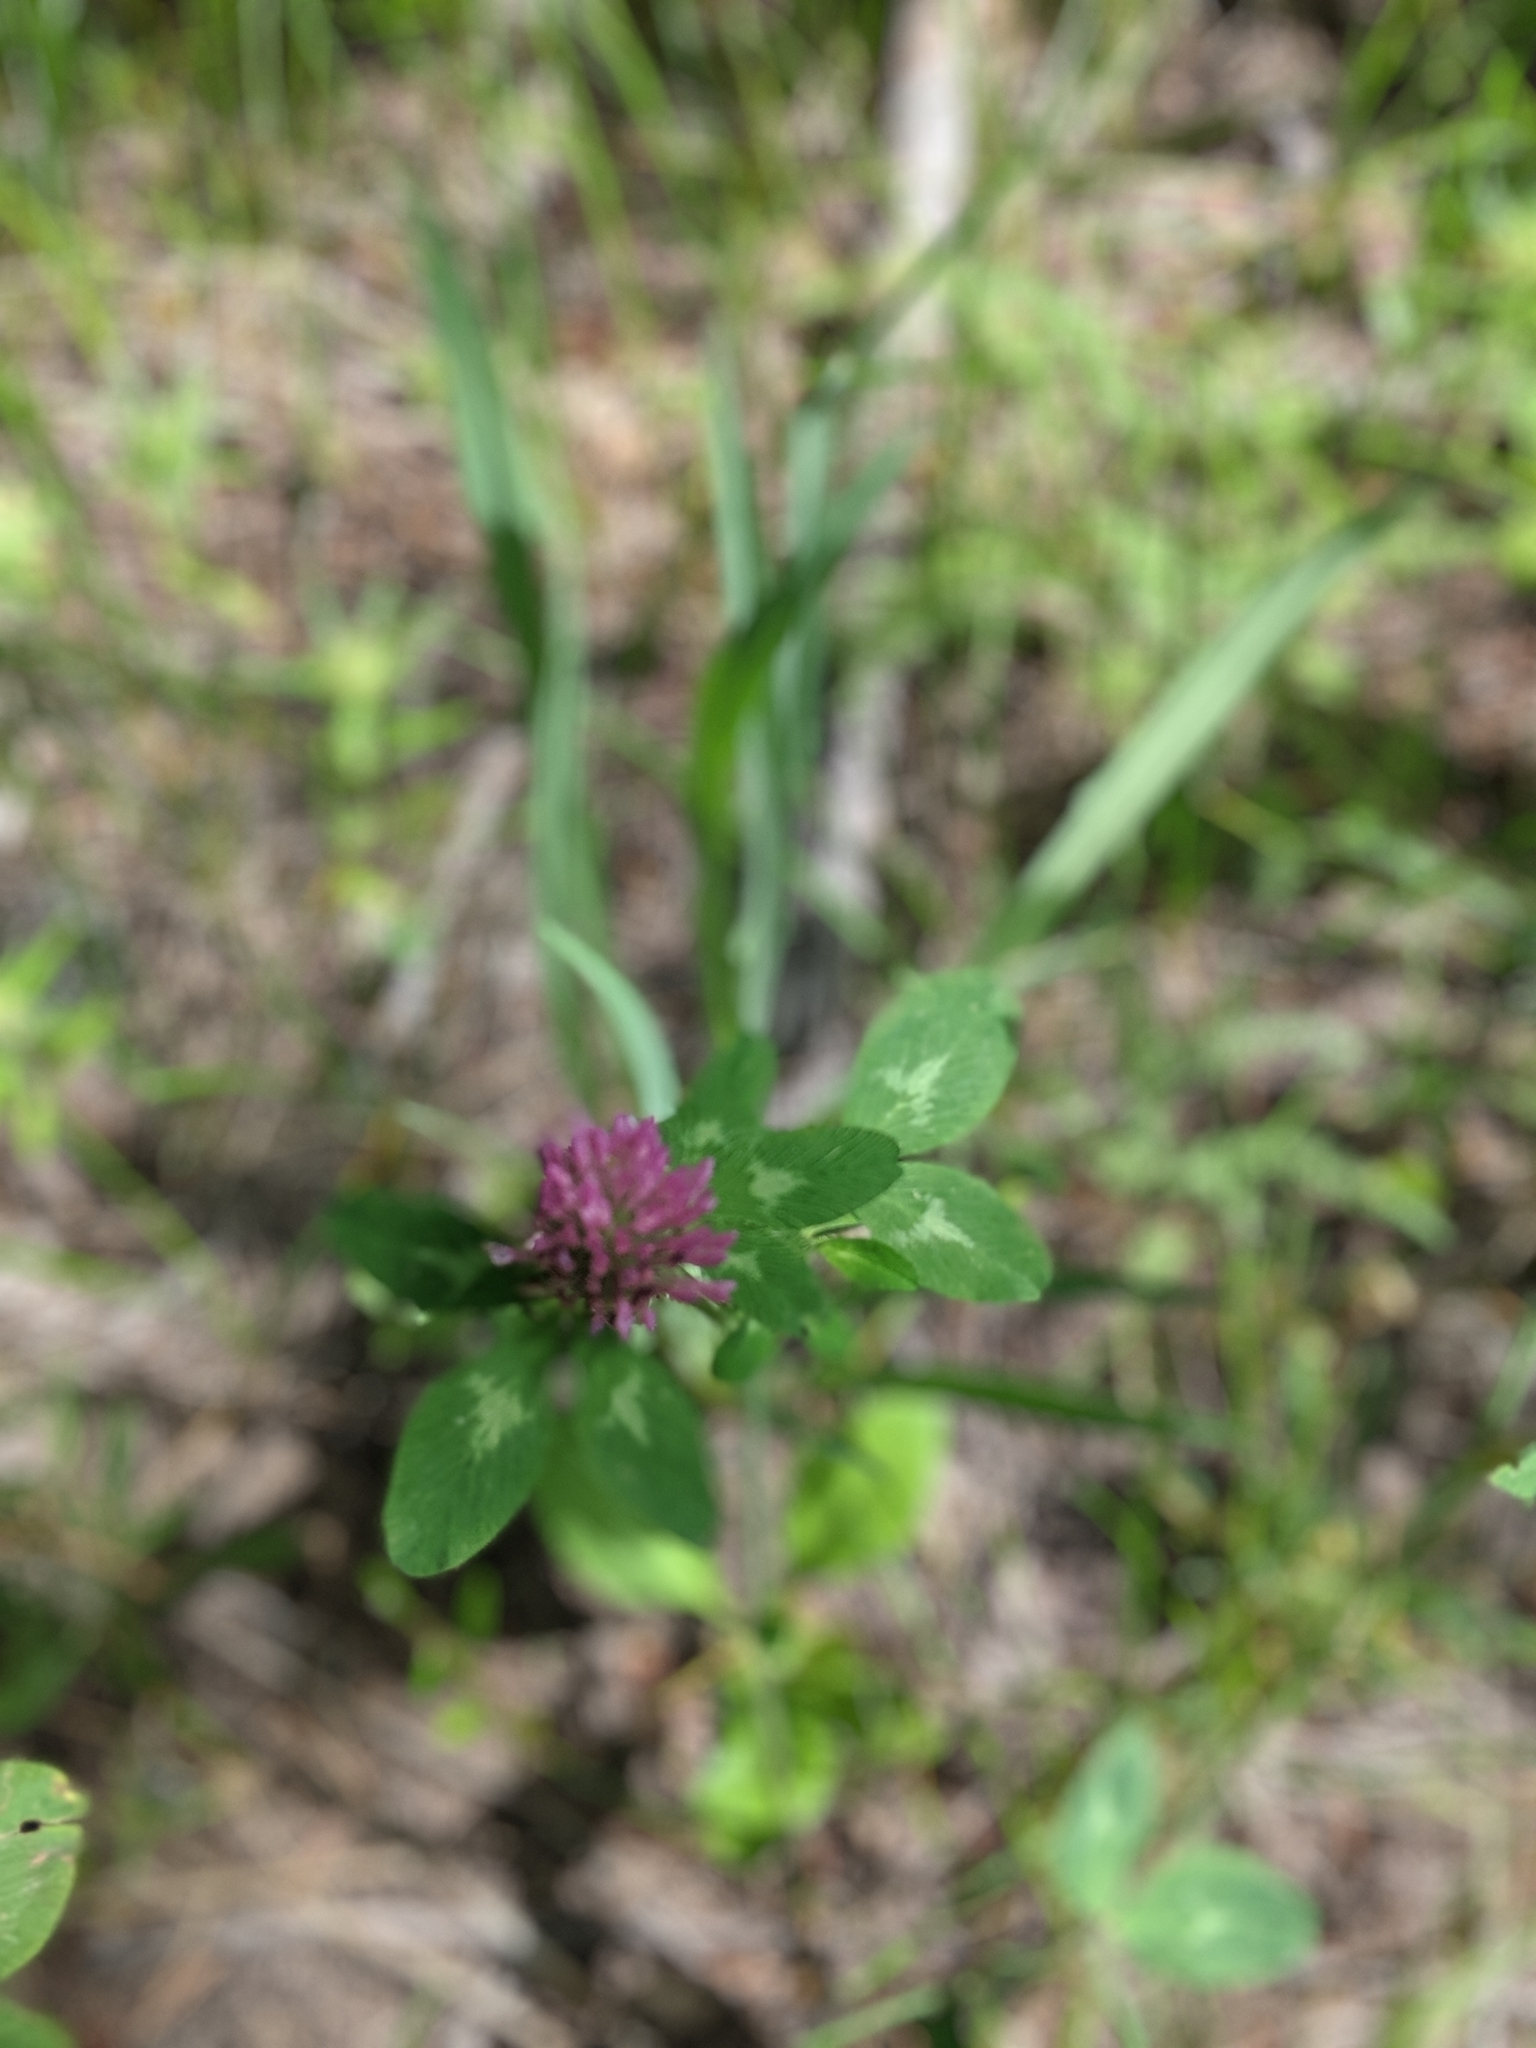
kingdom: Plantae
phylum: Tracheophyta
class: Magnoliopsida
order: Fabales
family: Fabaceae
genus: Trifolium
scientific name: Trifolium pratense
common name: Red clover
